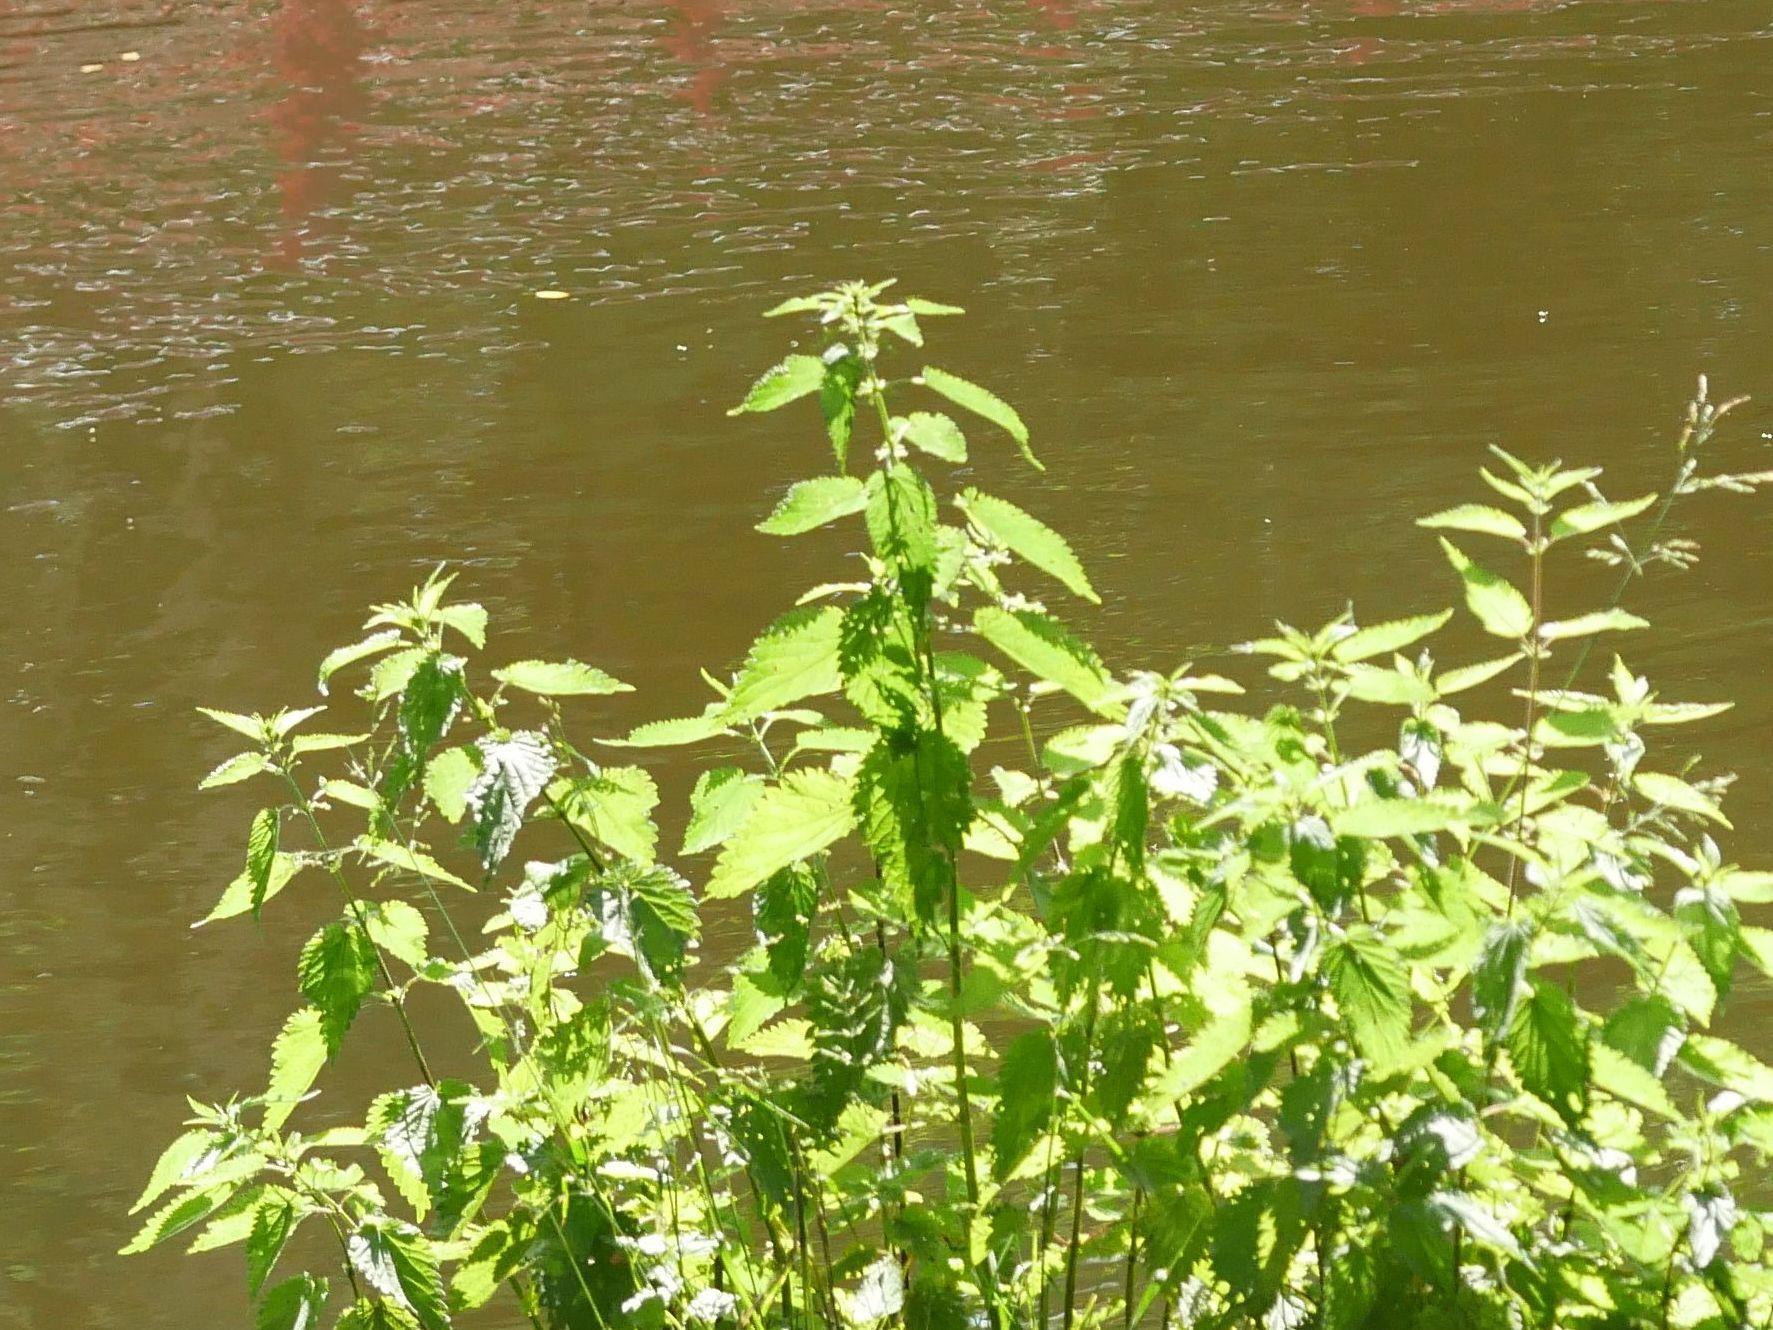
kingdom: Plantae
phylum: Tracheophyta
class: Magnoliopsida
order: Rosales
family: Urticaceae
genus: Urtica
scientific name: Urtica dioica
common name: Common nettle
